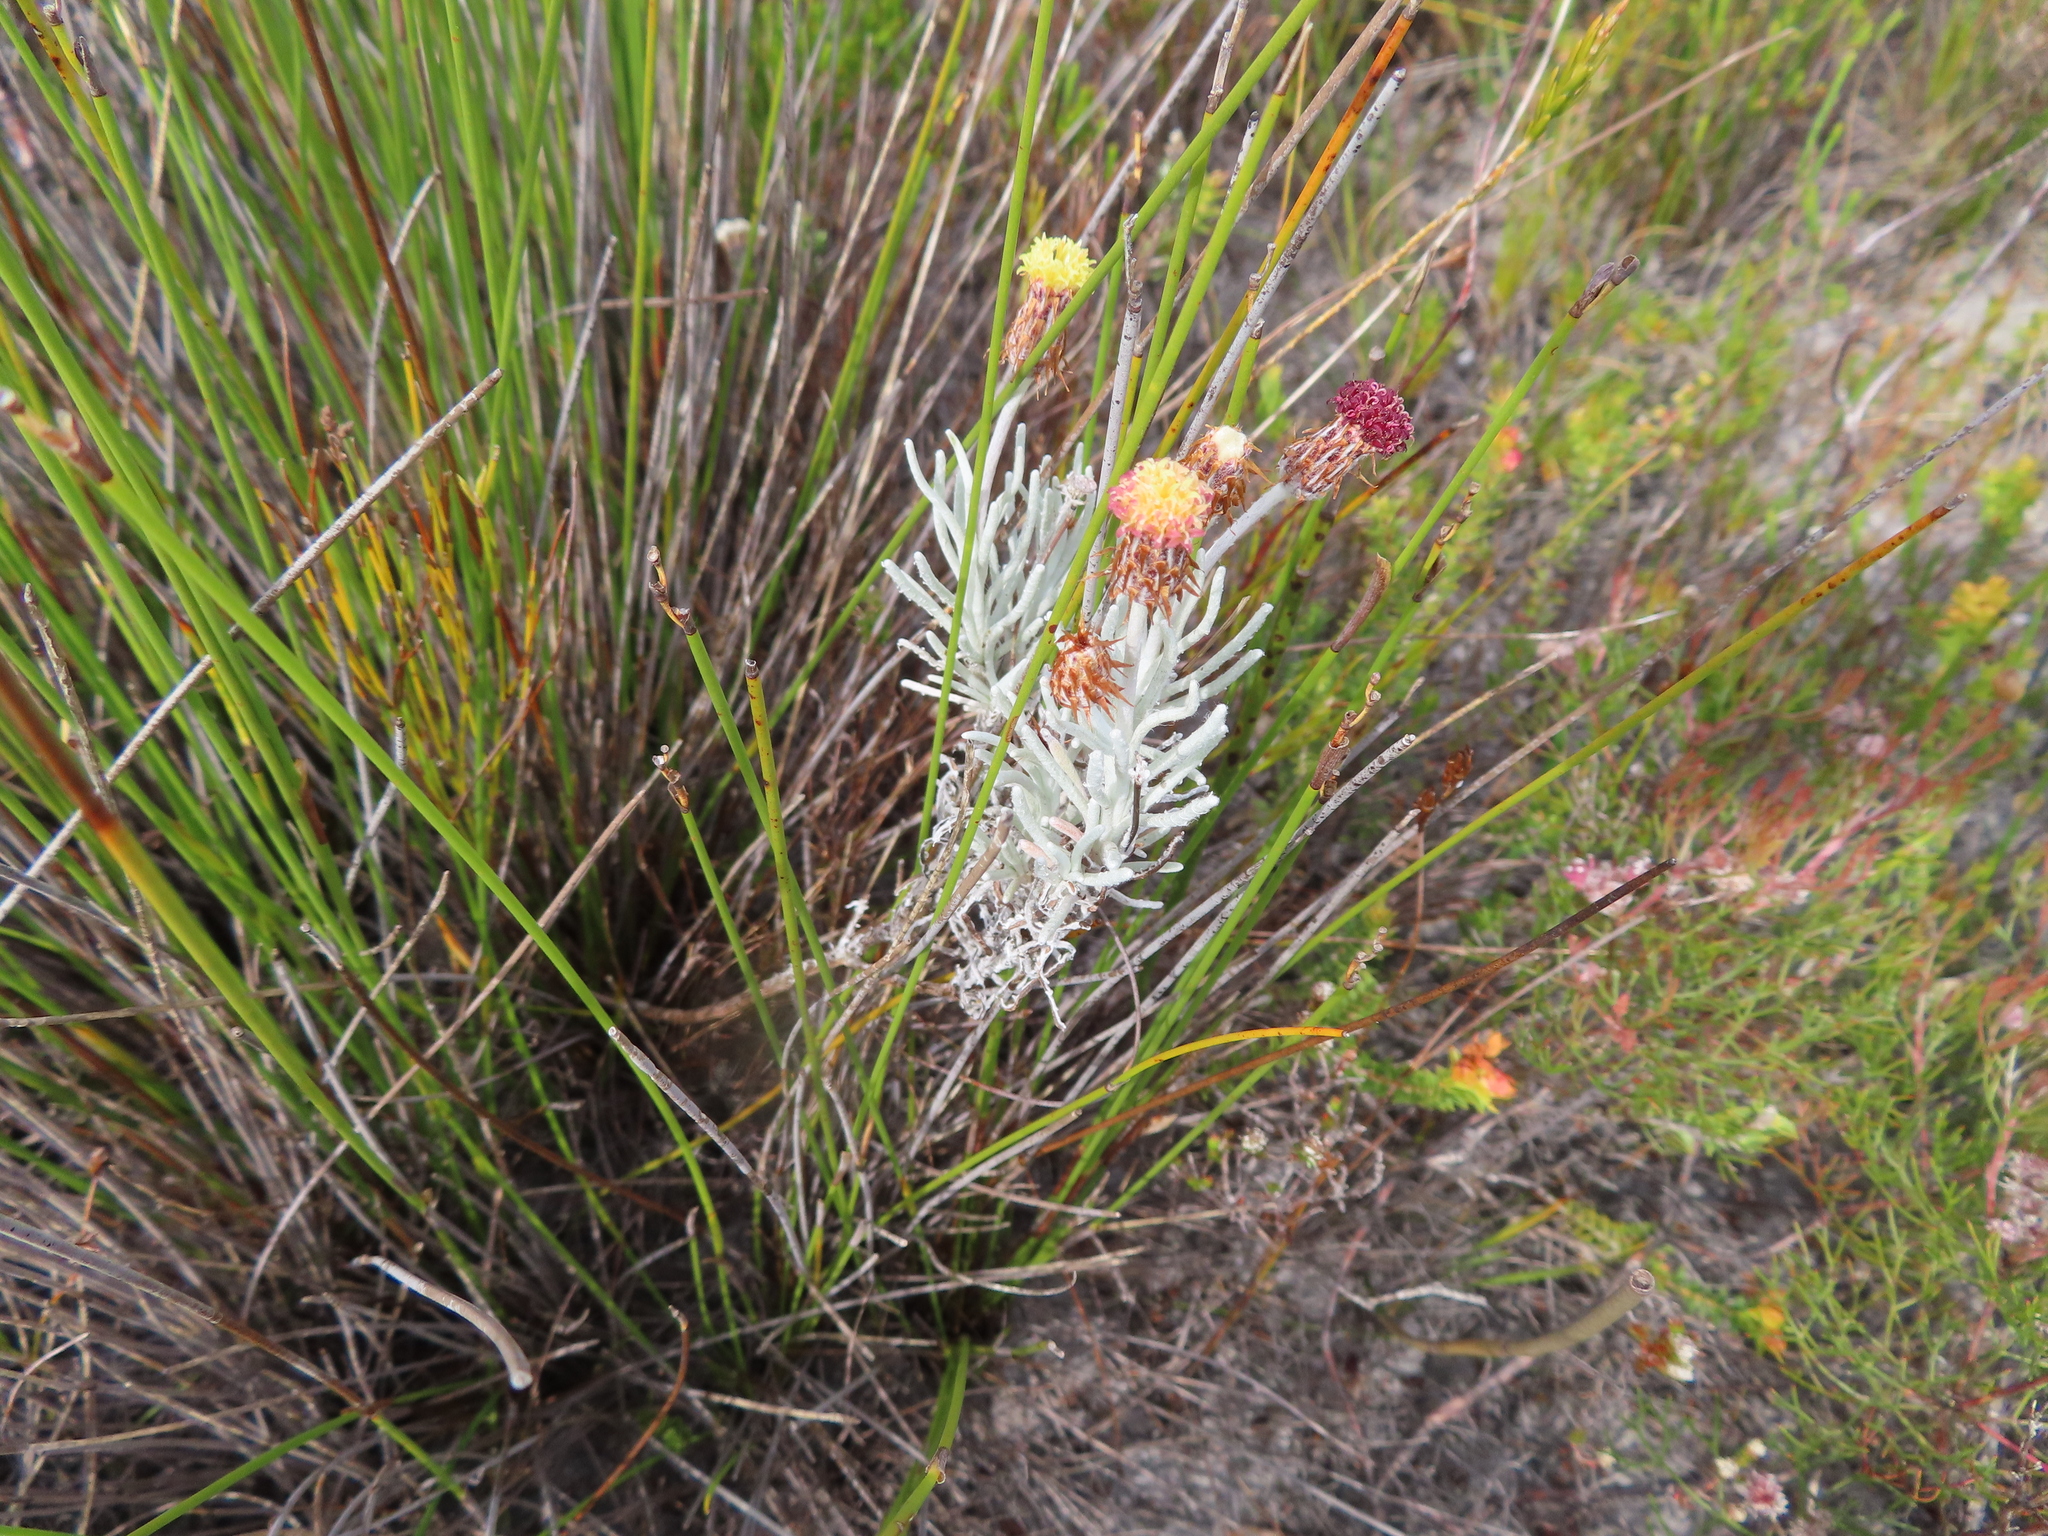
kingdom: Plantae
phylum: Tracheophyta
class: Magnoliopsida
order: Asterales
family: Asteraceae
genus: Syncarpha
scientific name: Syncarpha gnaphaloides
